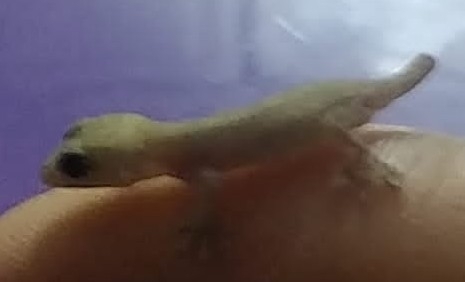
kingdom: Animalia
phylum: Chordata
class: Squamata
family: Gekkonidae
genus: Hemidactylus
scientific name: Hemidactylus frenatus
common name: Common house gecko
